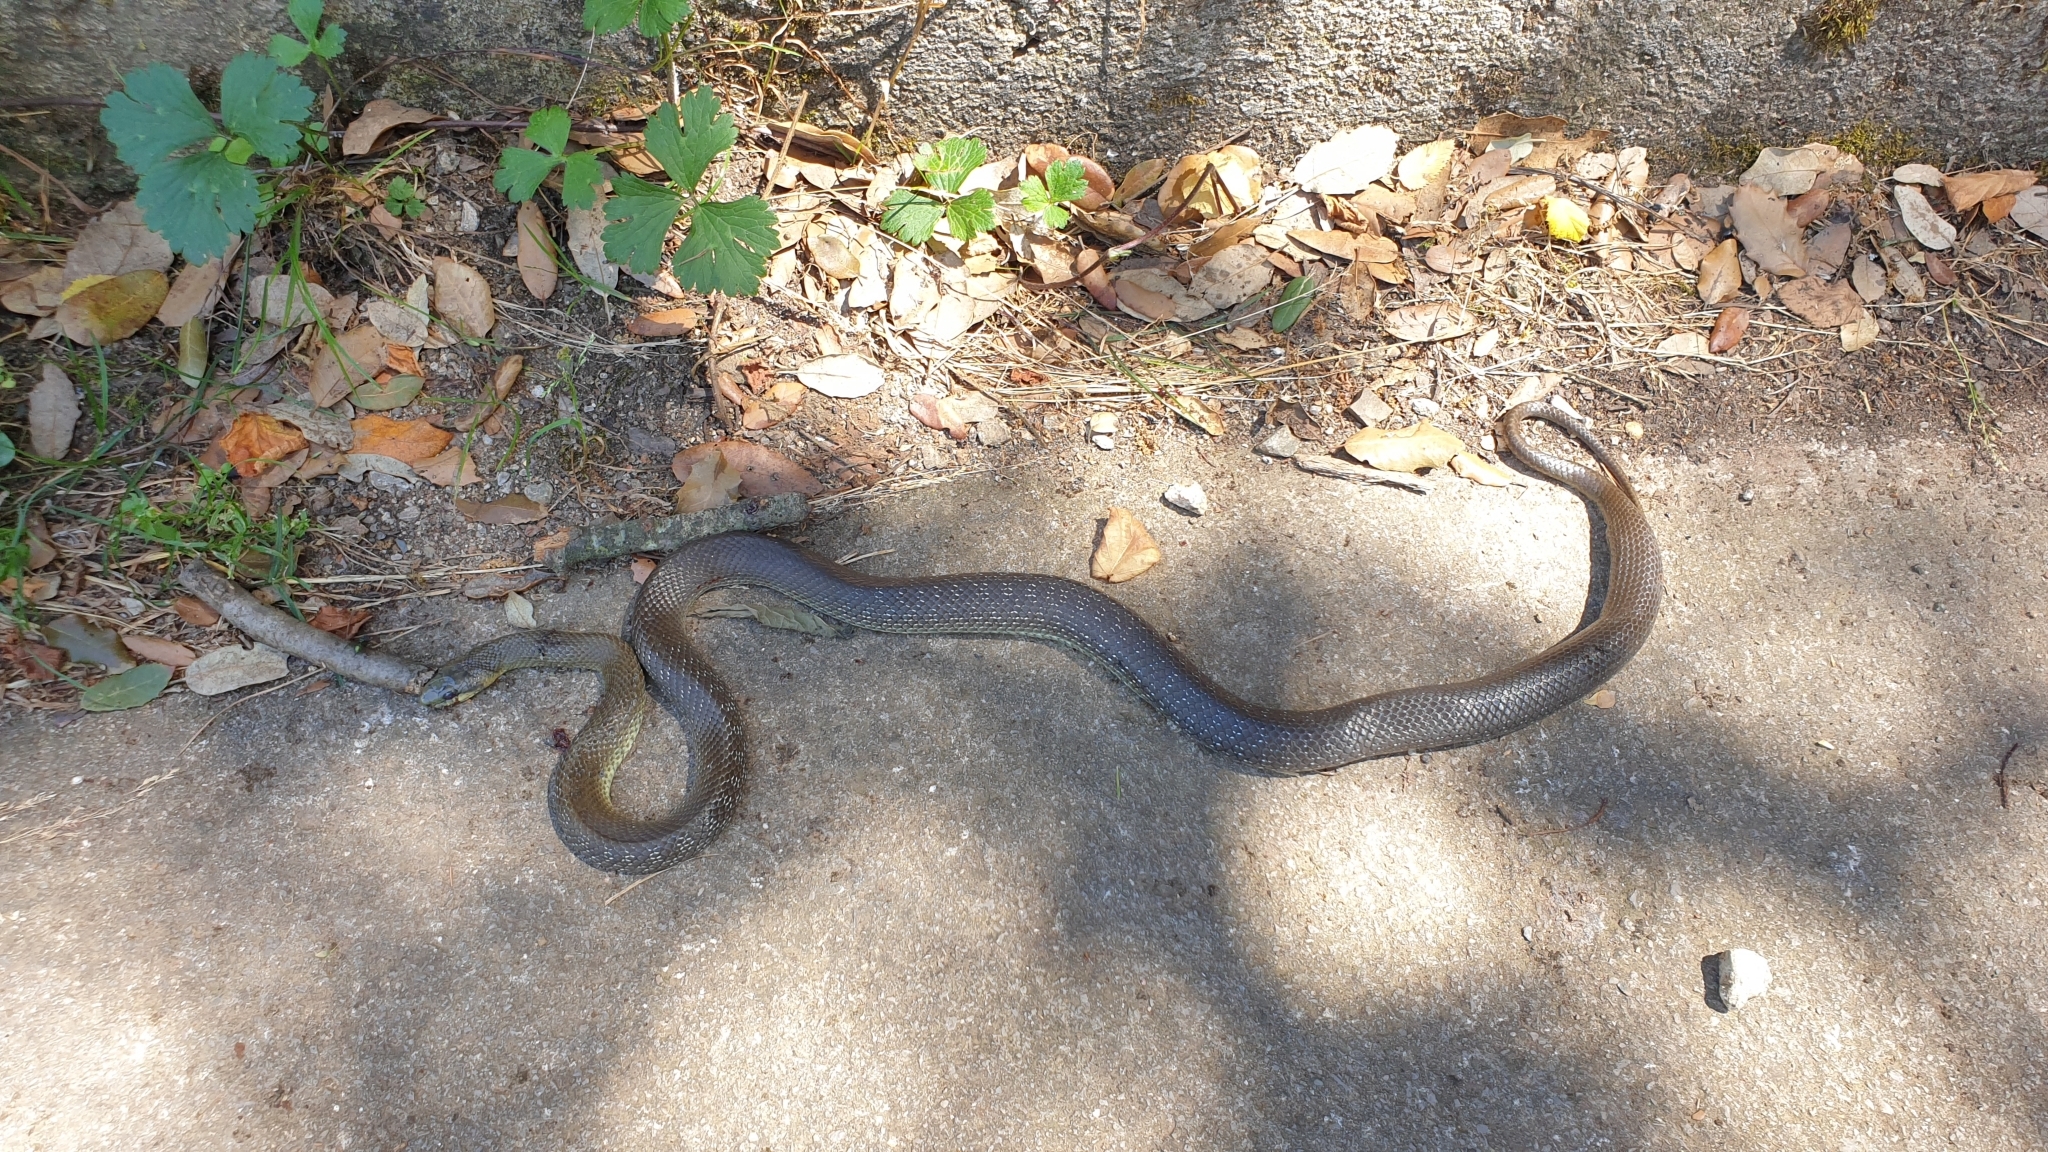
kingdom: Animalia
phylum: Chordata
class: Squamata
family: Colubridae
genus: Zamenis
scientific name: Zamenis longissimus
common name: Aesculapean snake
